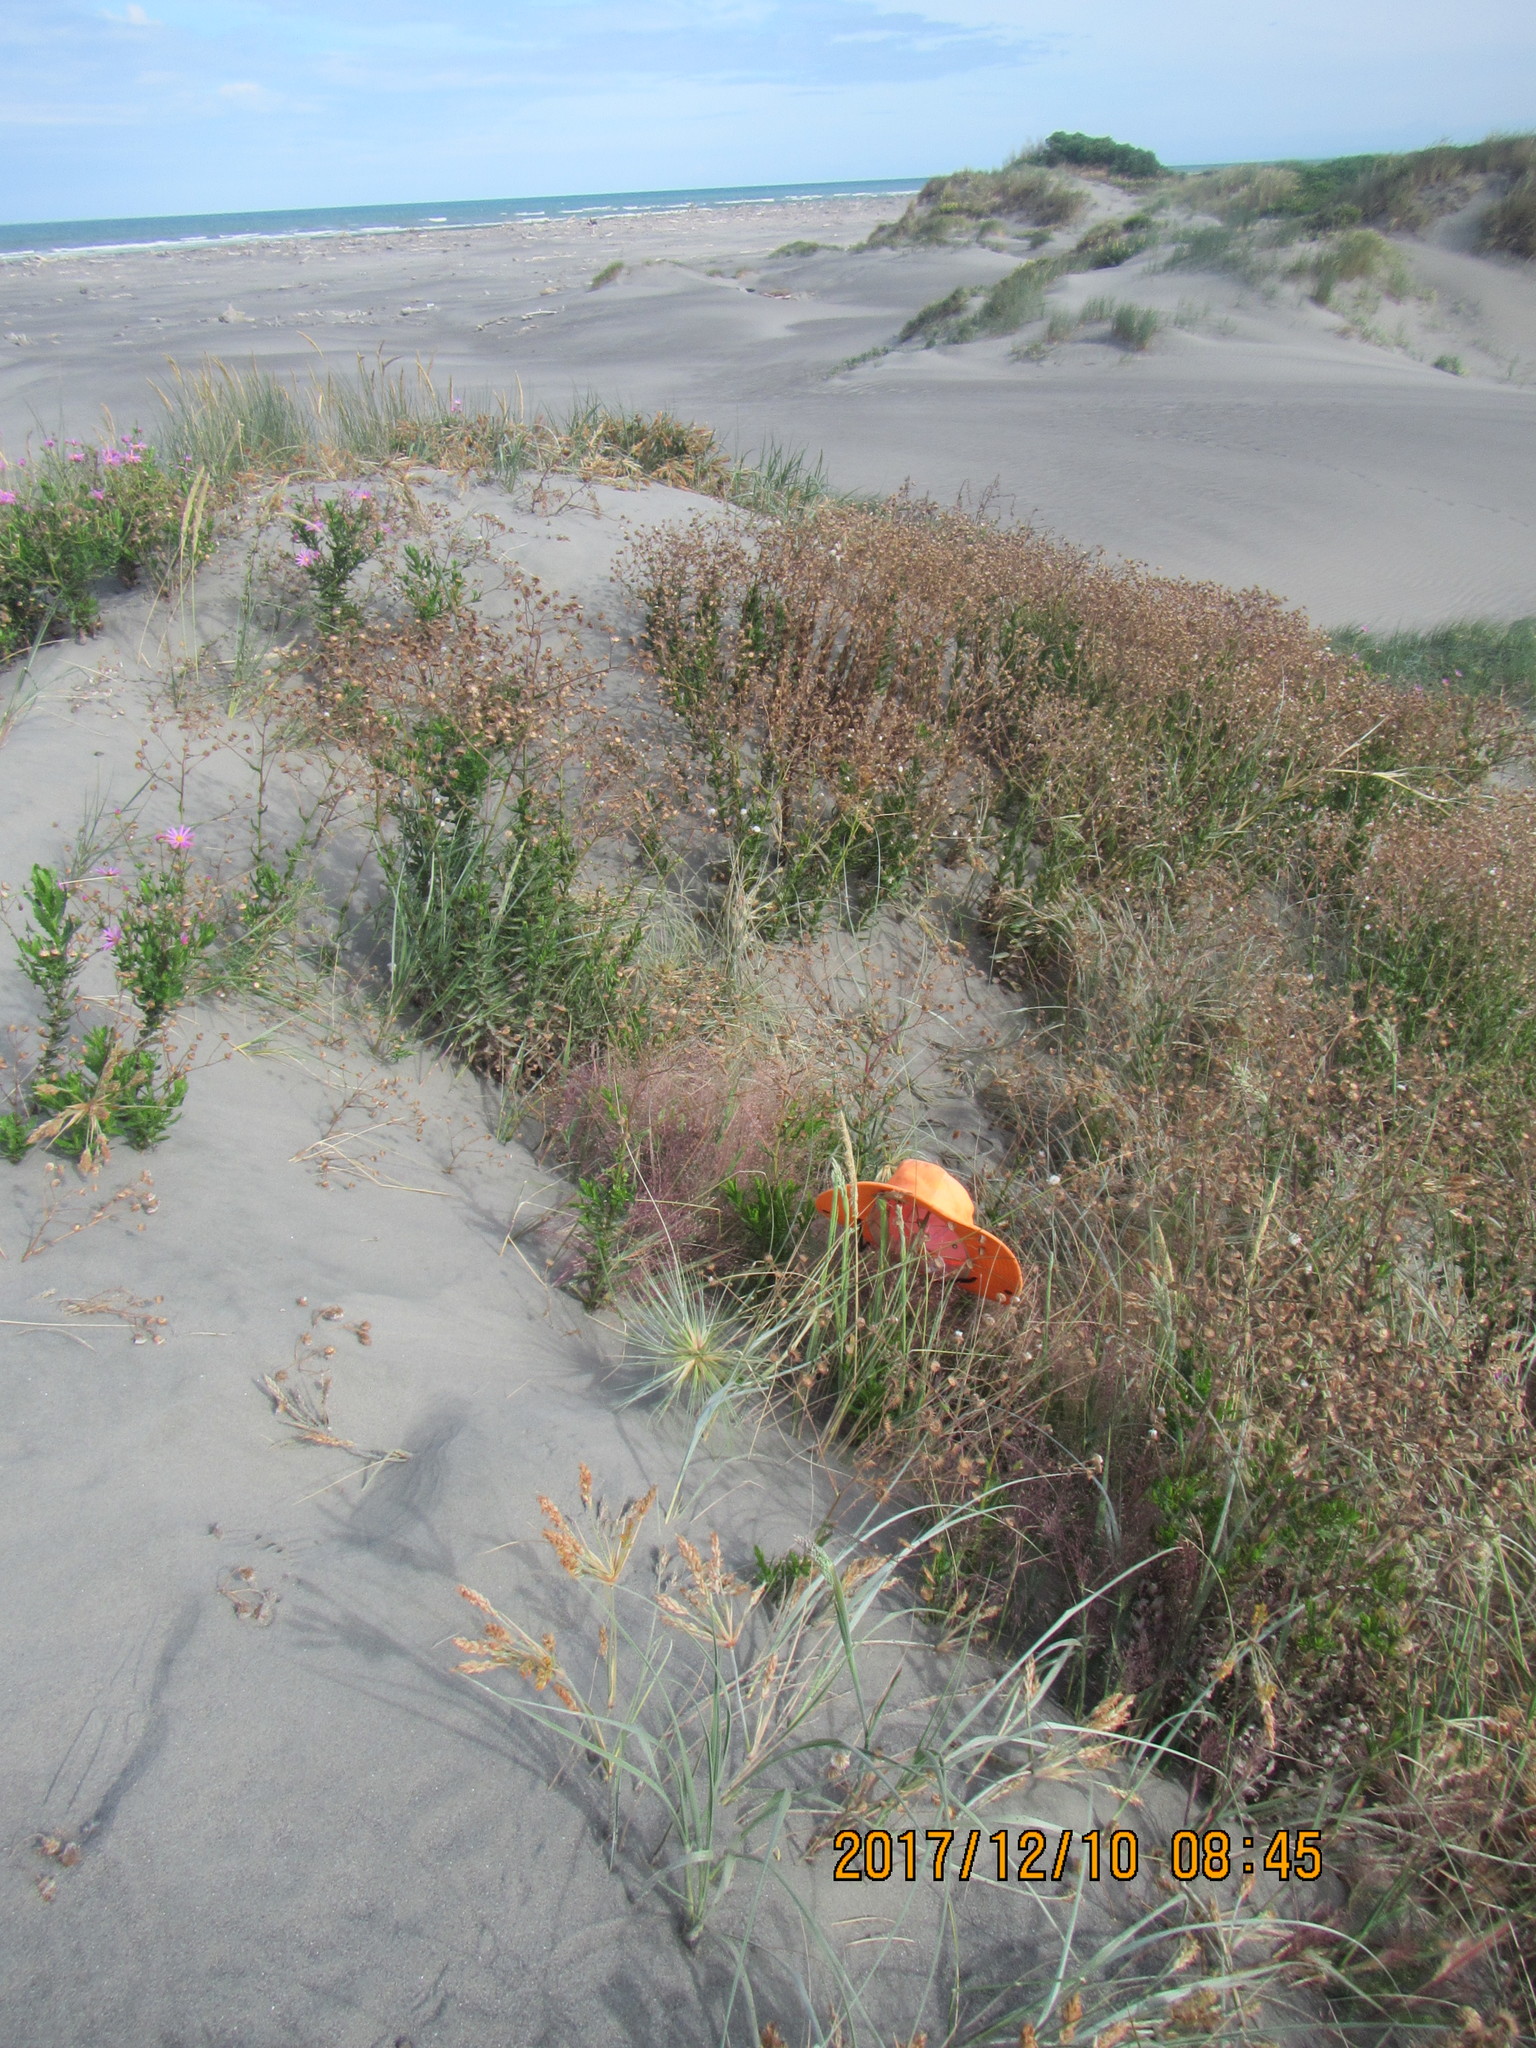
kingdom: Plantae
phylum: Tracheophyta
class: Liliopsida
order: Poales
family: Poaceae
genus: Lachnagrostis
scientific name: Lachnagrostis billardierei
